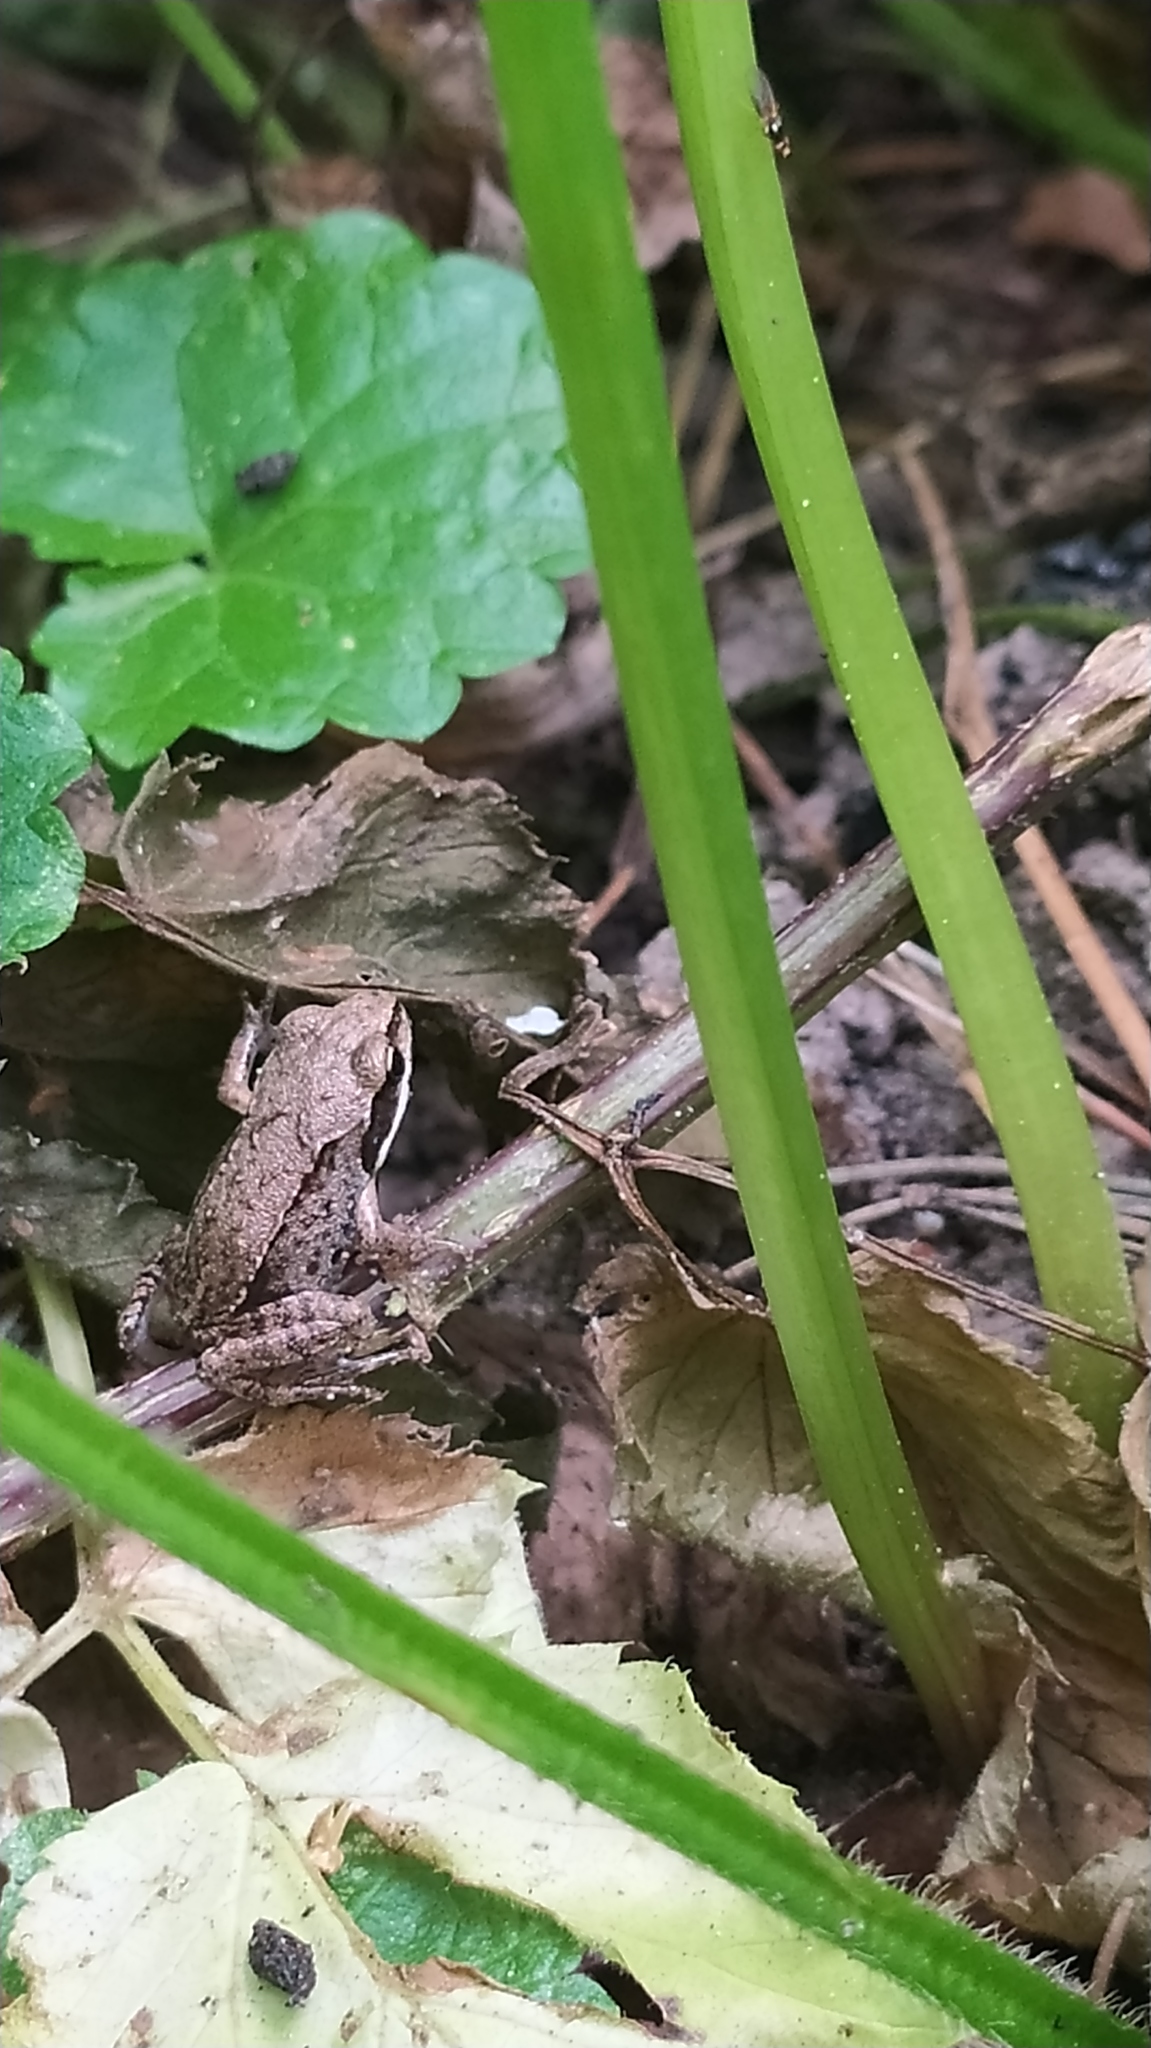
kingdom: Animalia
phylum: Chordata
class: Amphibia
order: Anura
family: Ranidae
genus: Rana
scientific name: Rana temporaria
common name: Common frog
